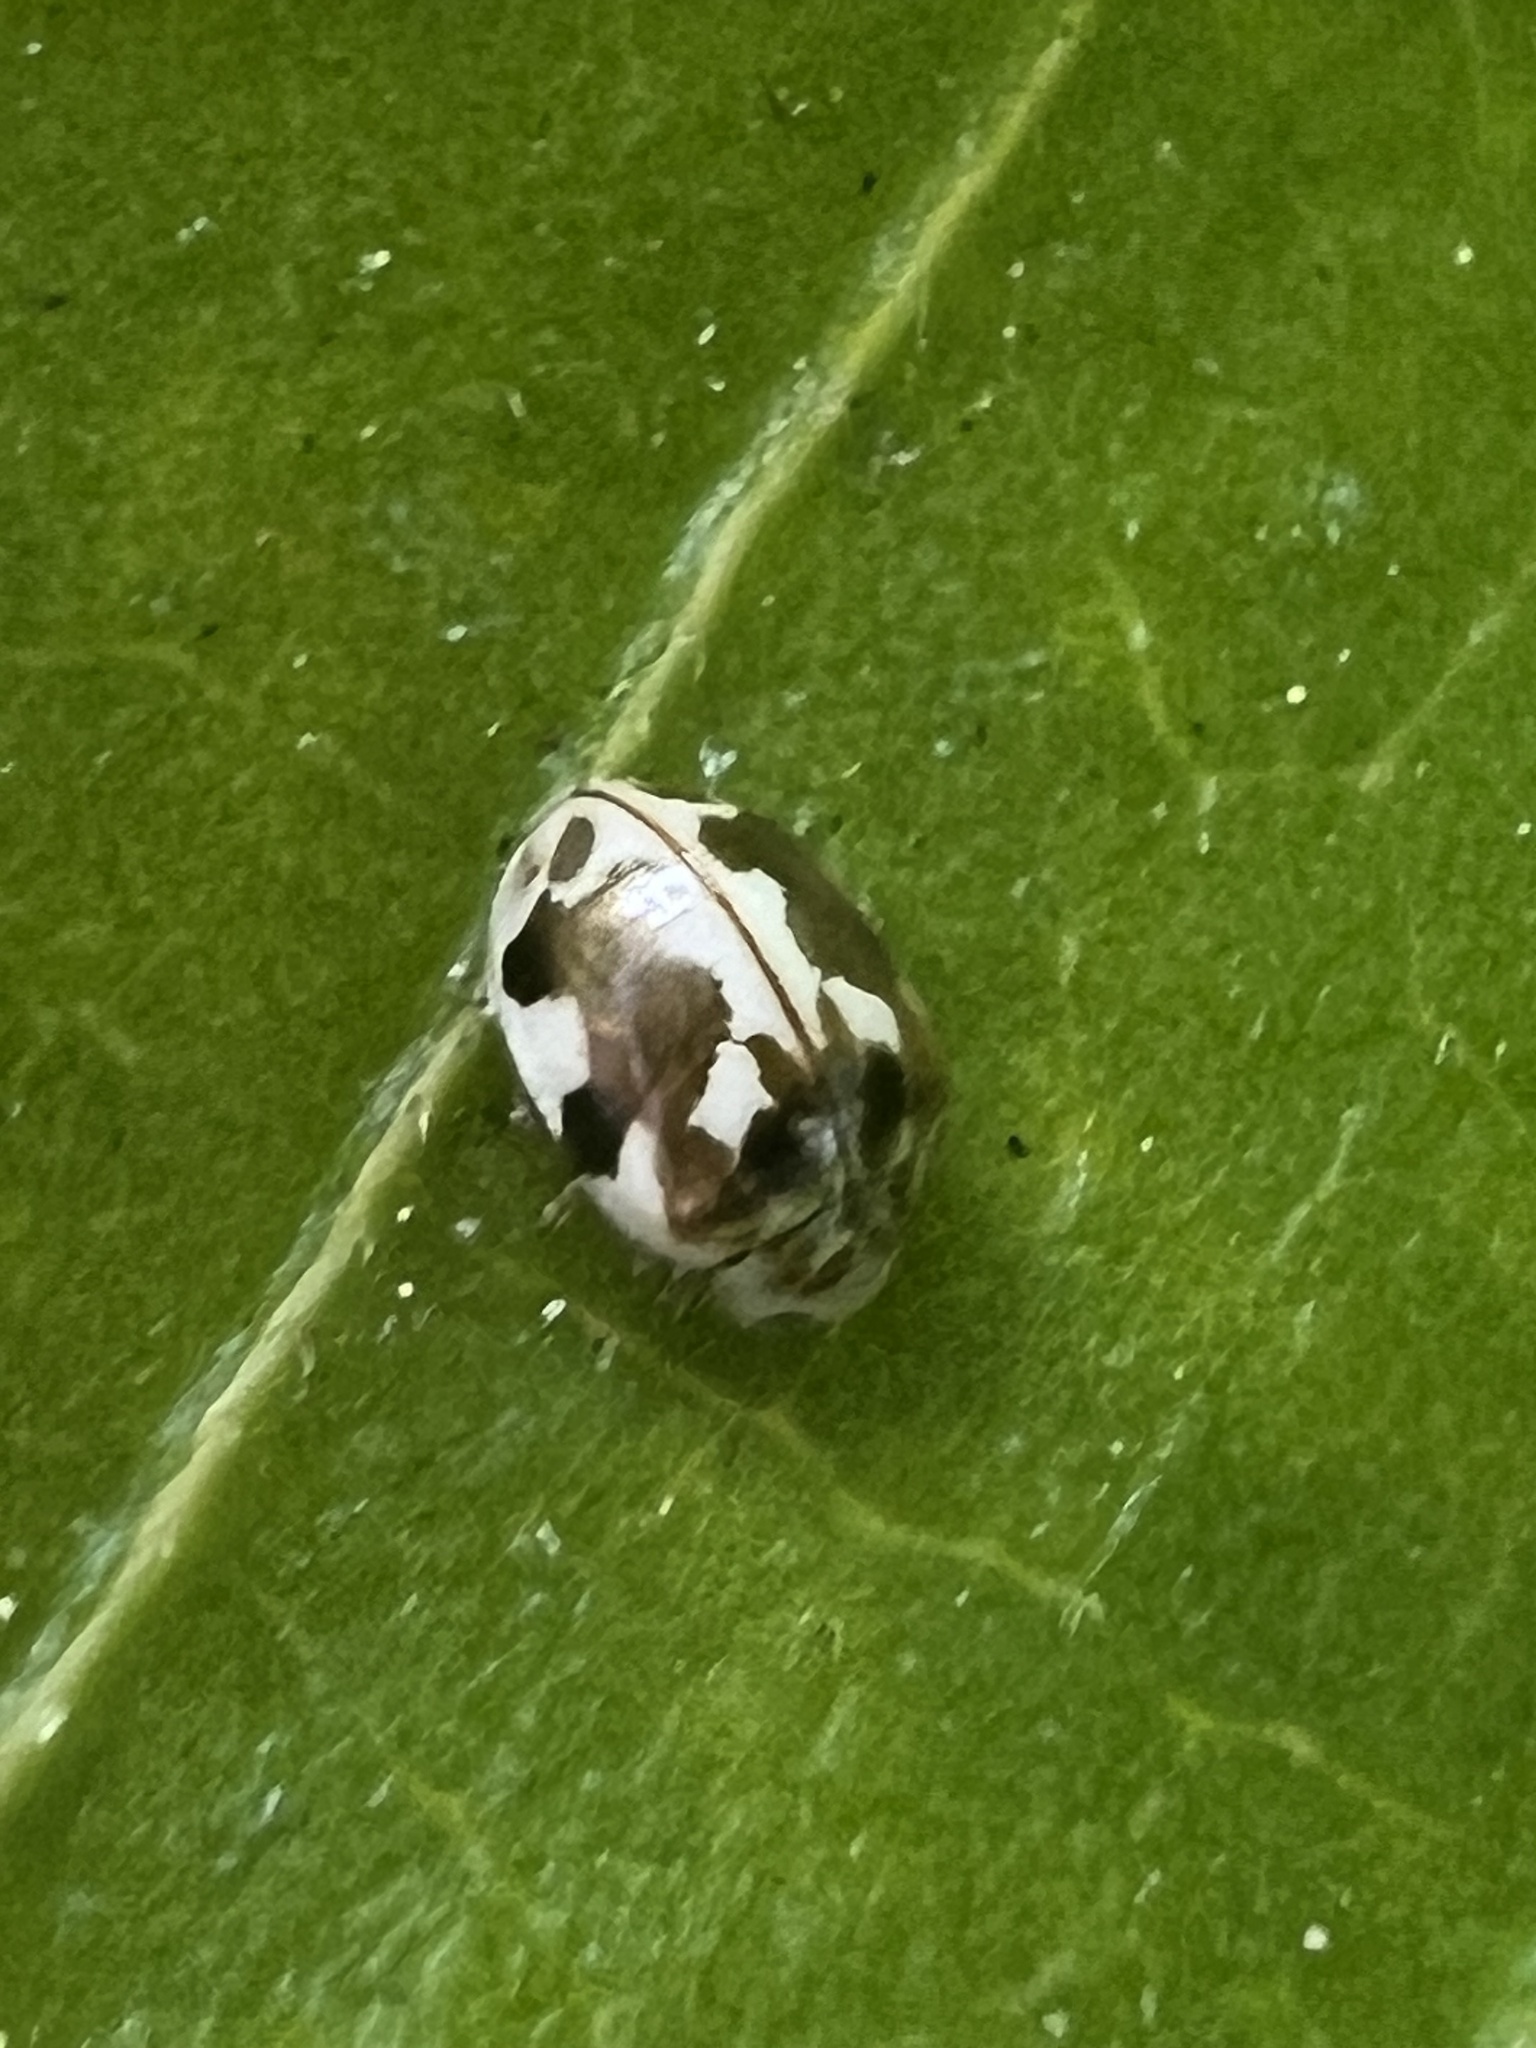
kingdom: Animalia
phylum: Arthropoda
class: Insecta
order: Coleoptera
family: Coccinellidae
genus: Psyllobora
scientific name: Psyllobora vigintimaculata
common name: Ladybird beetle
